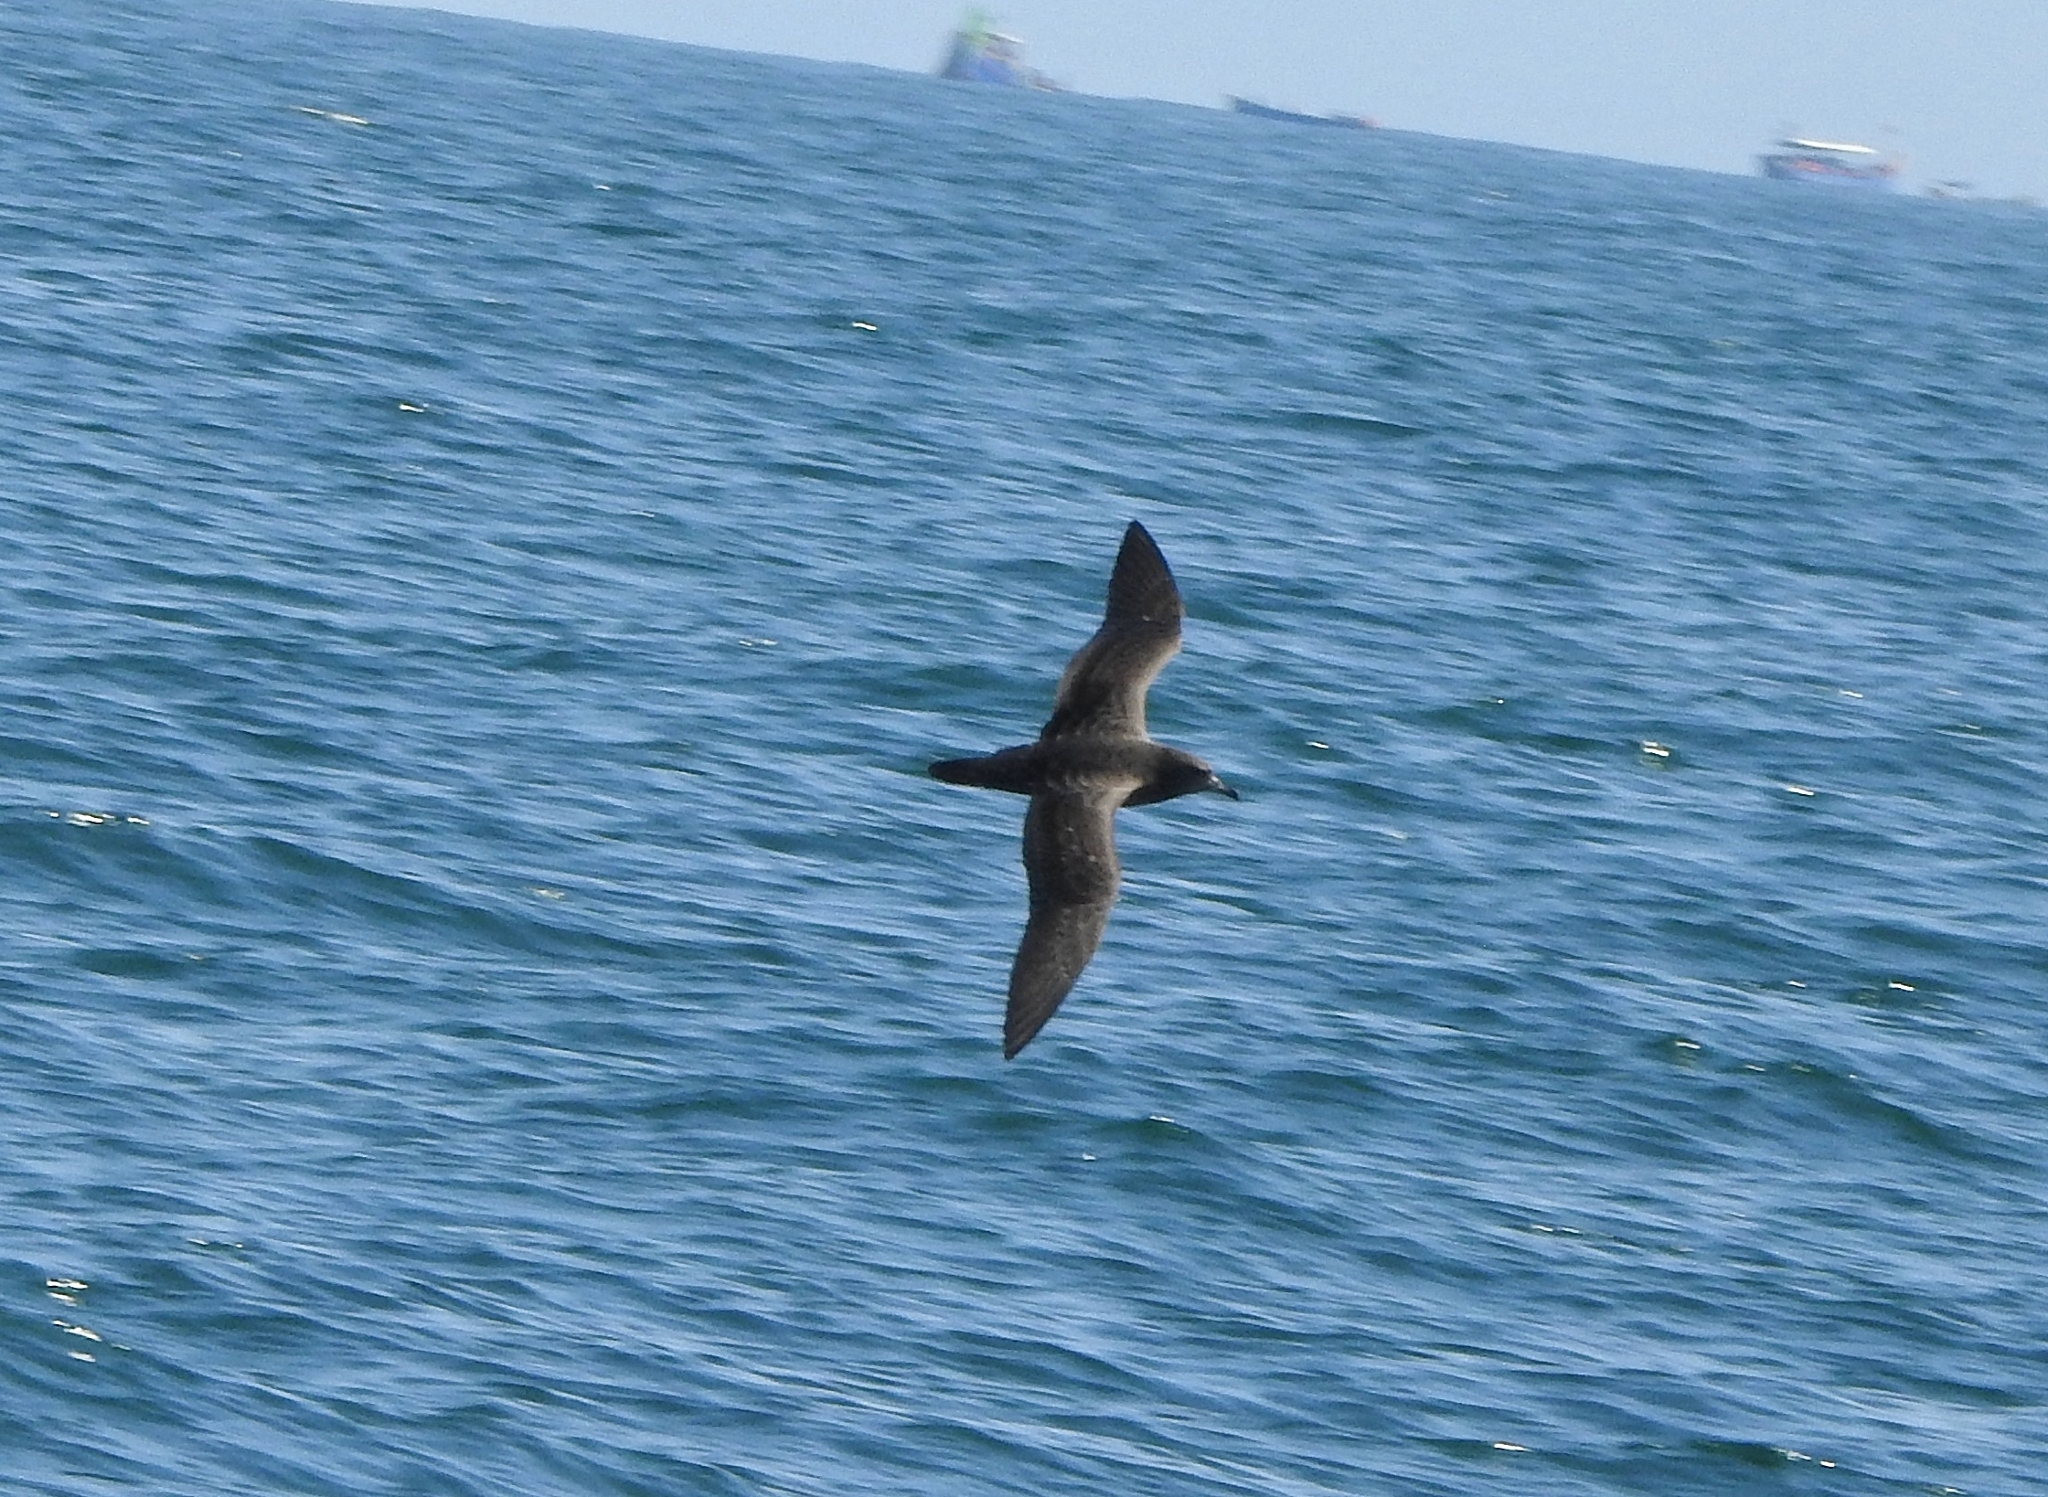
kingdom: Animalia
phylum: Chordata
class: Aves
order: Procellariiformes
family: Procellariidae
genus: Puffinus
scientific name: Puffinus carneipes
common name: Flesh-footed shearwater
